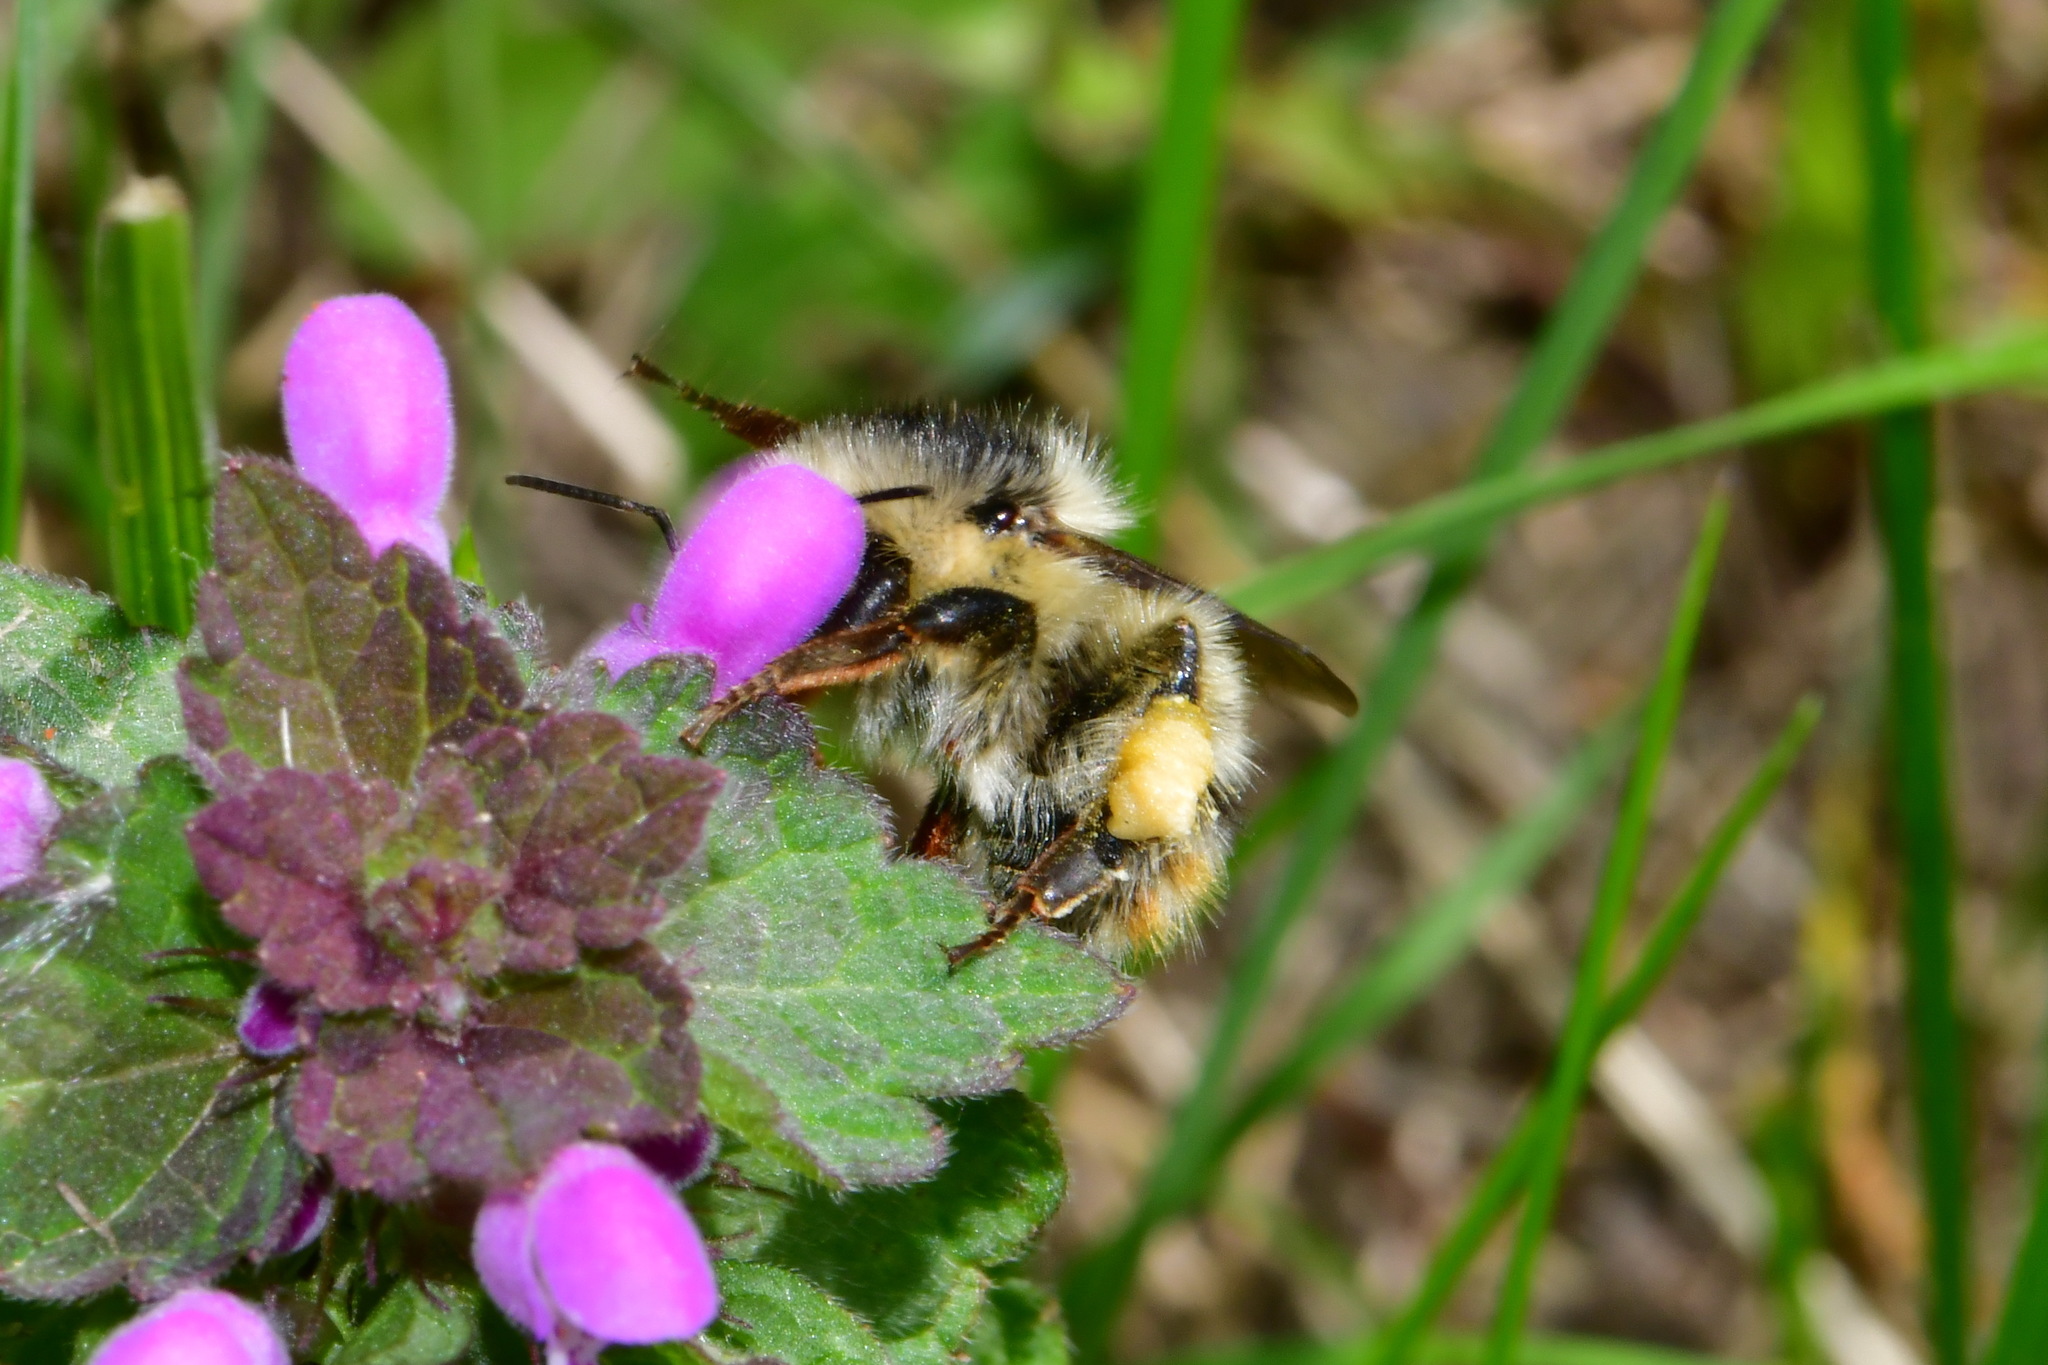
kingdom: Animalia
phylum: Arthropoda
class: Insecta
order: Hymenoptera
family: Apidae
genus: Bombus
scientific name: Bombus sylvarum
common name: Shrill carder bee
